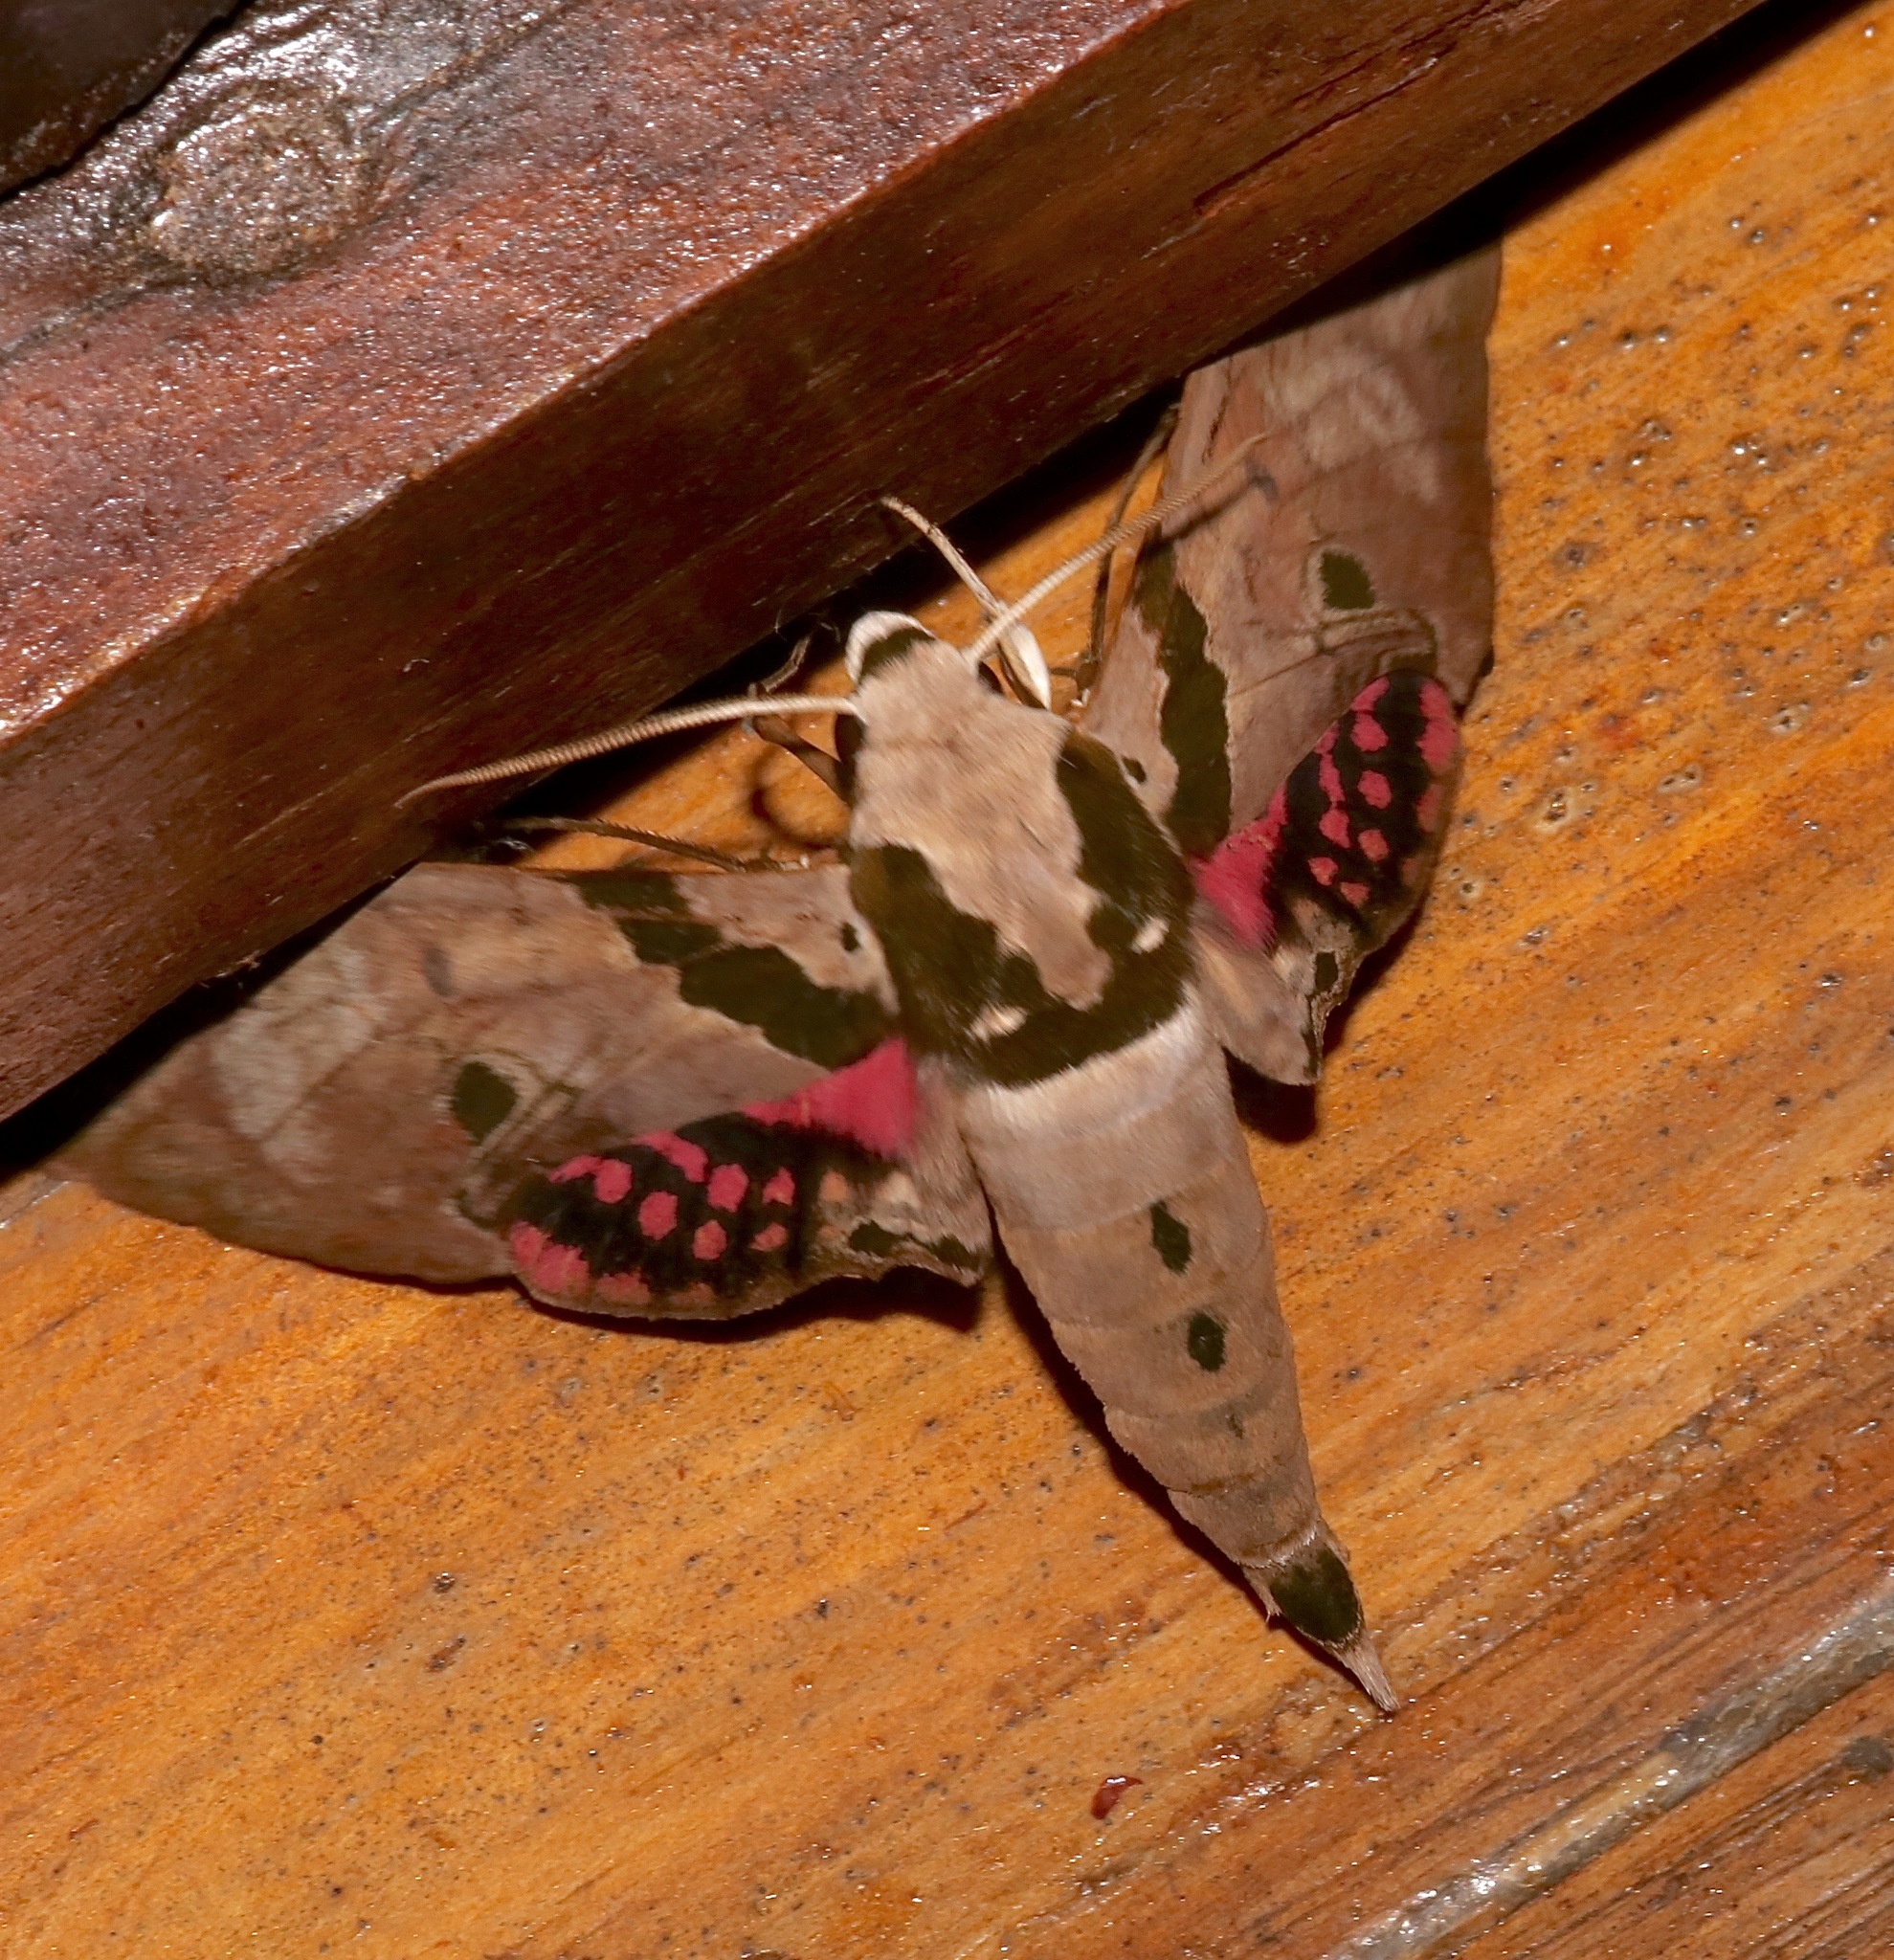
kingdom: Animalia
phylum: Arthropoda
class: Insecta
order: Lepidoptera
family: Sphingidae
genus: Adhemarius
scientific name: Adhemarius gannascus
